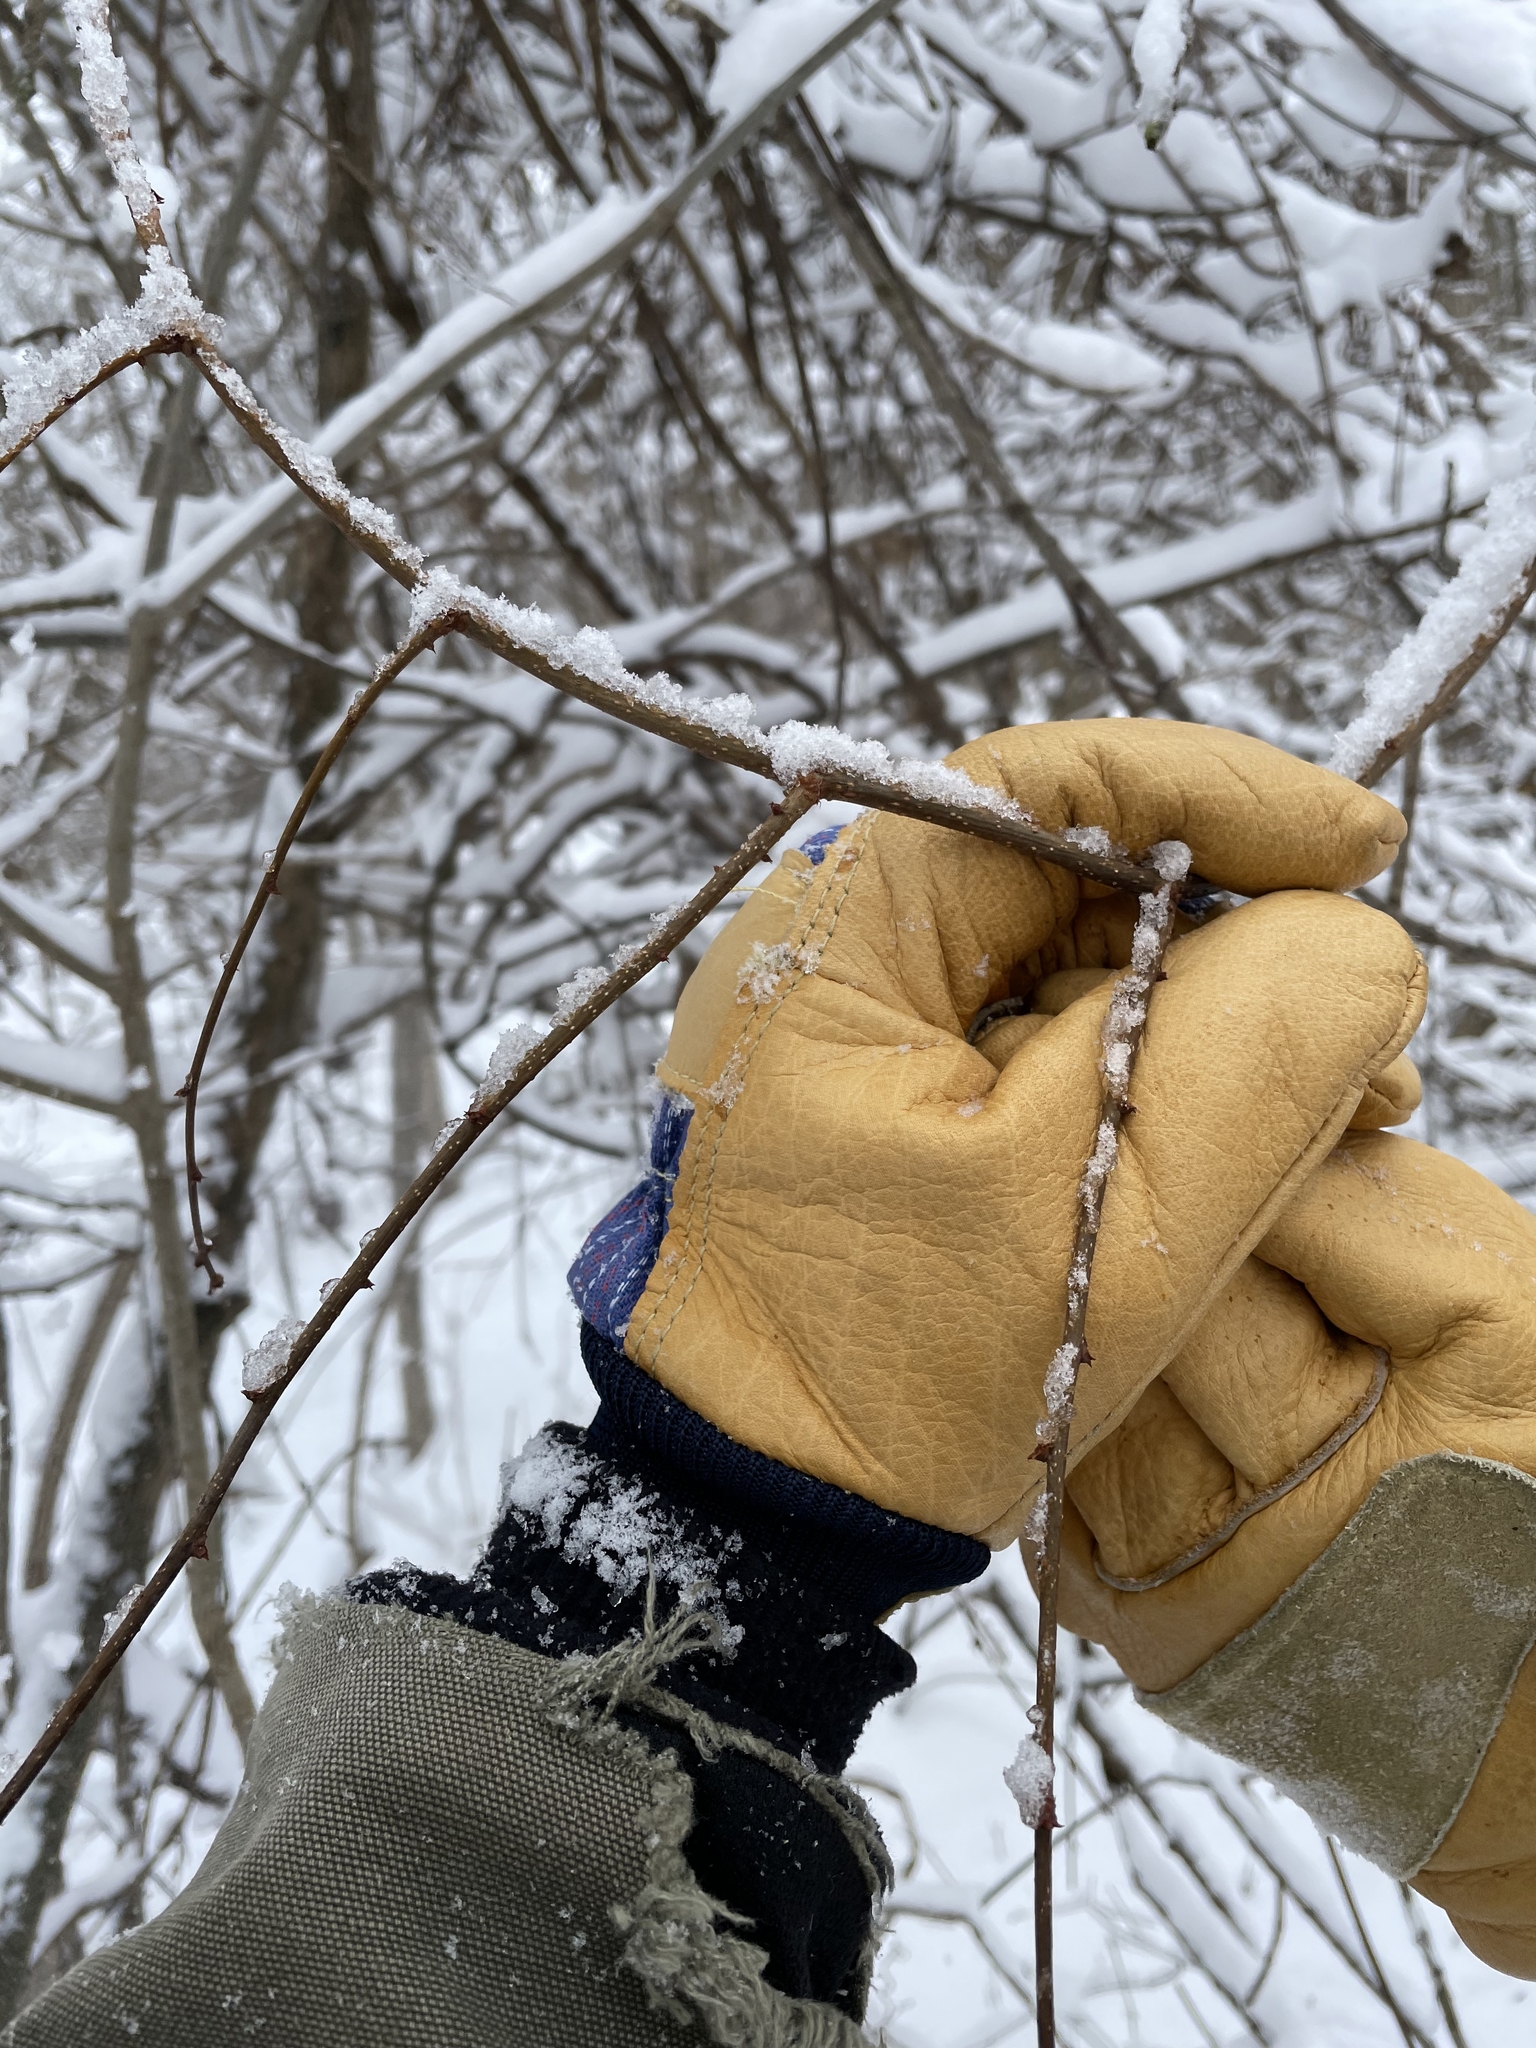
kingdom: Plantae
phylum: Tracheophyta
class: Magnoliopsida
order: Ranunculales
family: Berberidaceae
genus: Berberis
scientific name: Berberis thunbergii
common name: Japanese barberry
